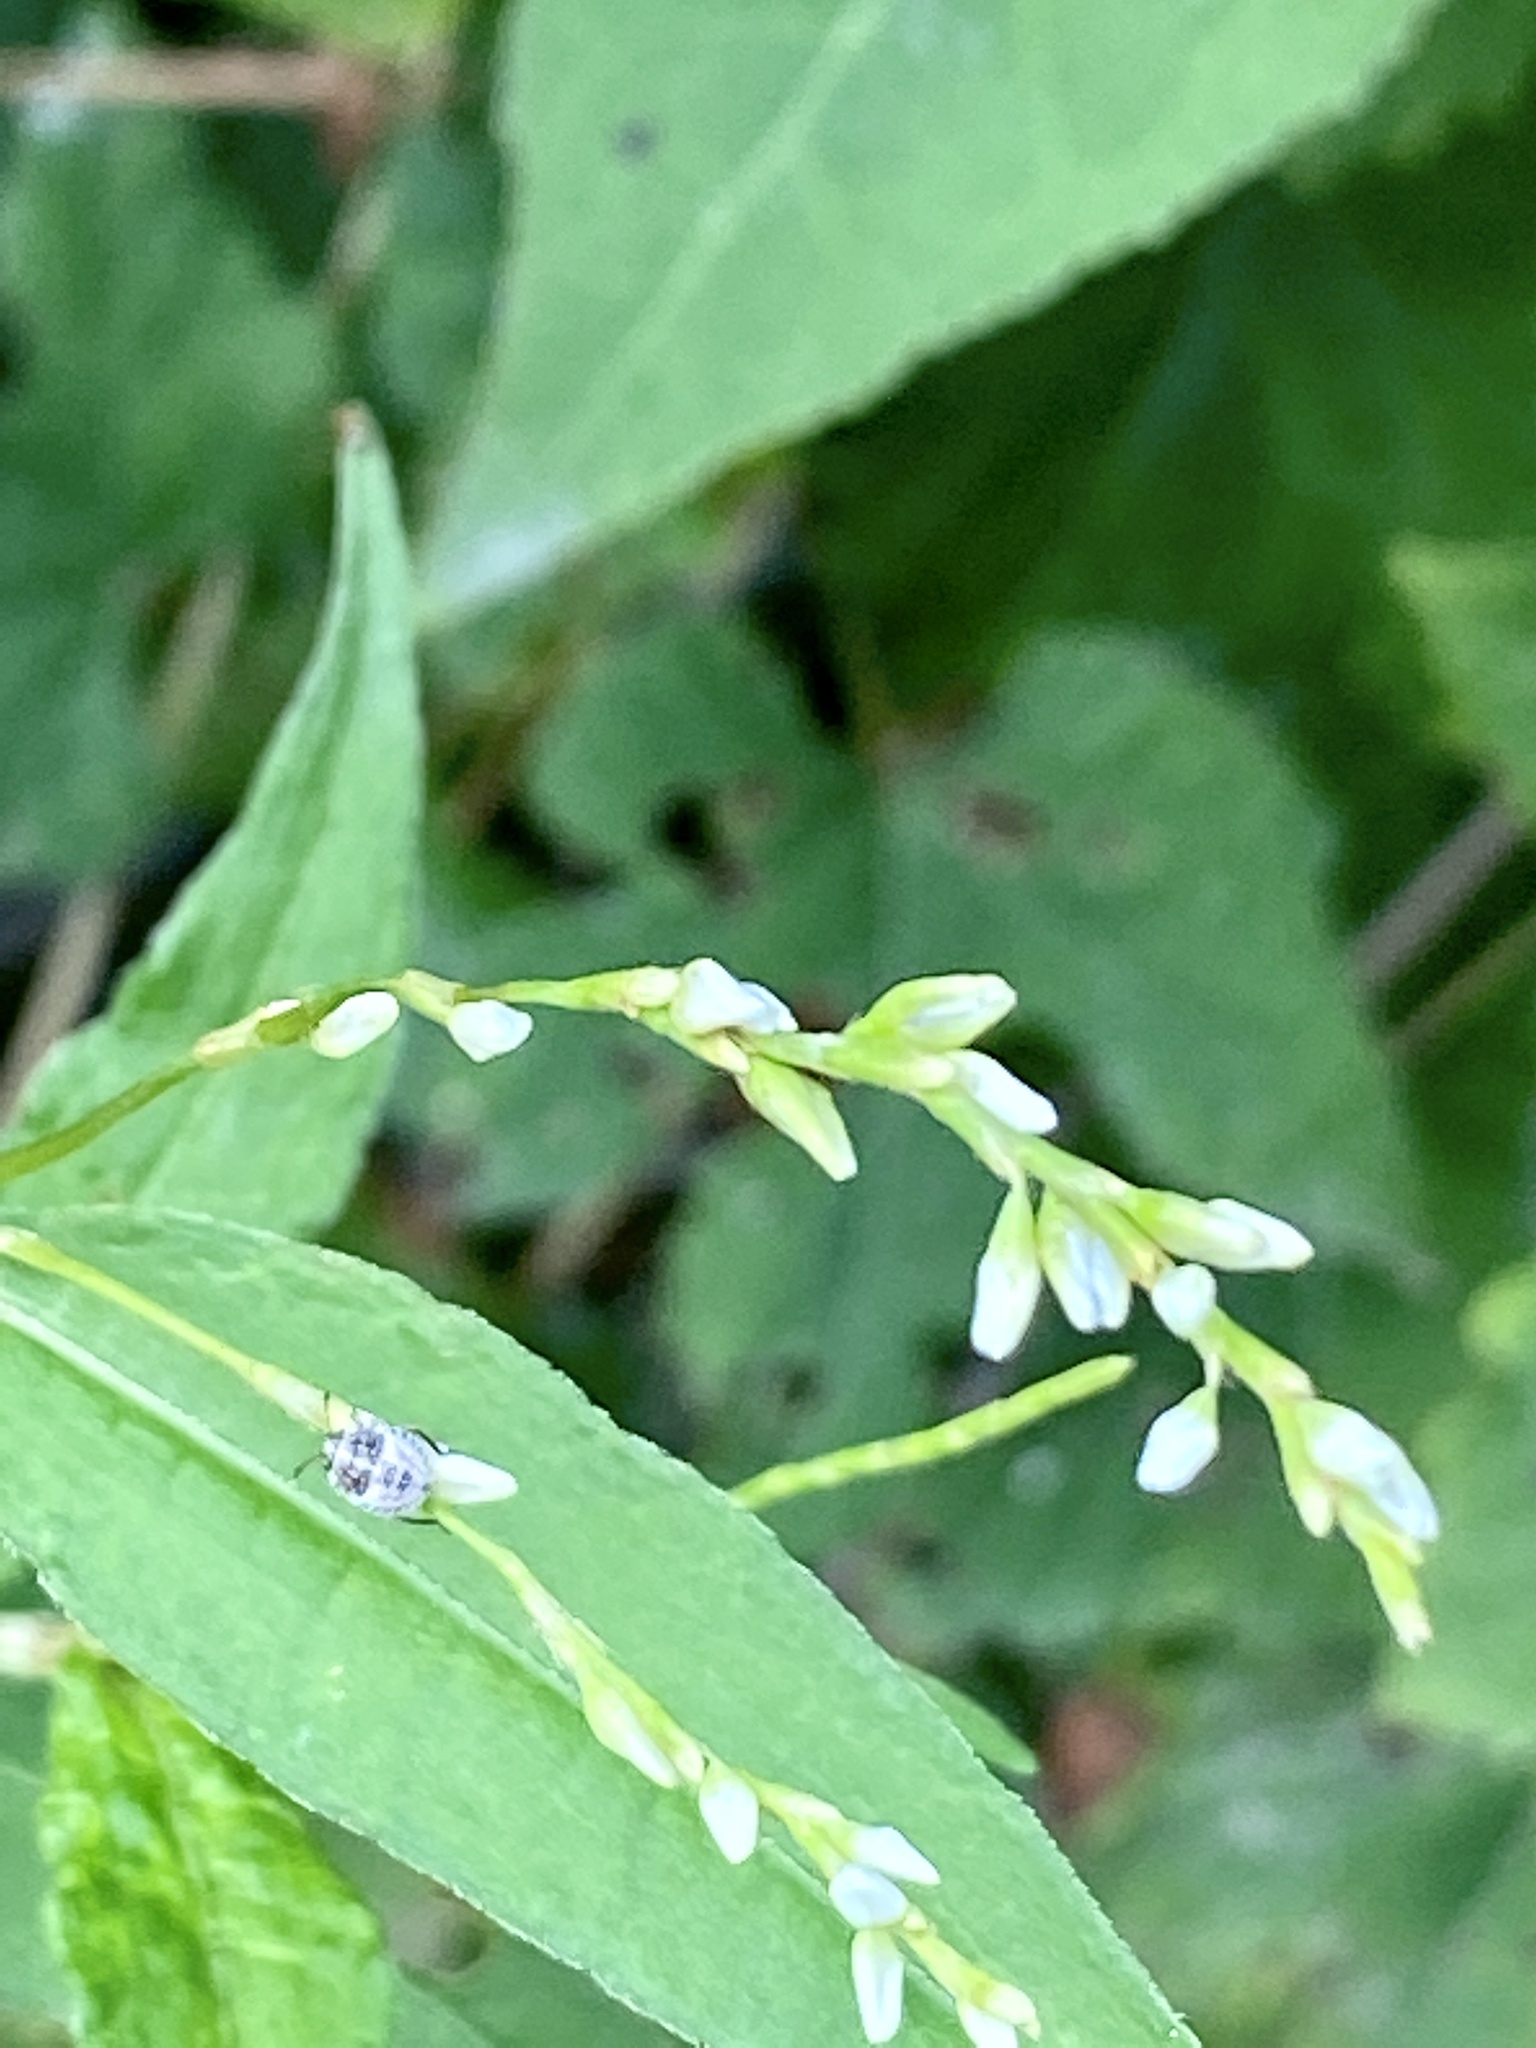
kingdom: Plantae
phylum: Tracheophyta
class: Magnoliopsida
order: Caryophyllales
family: Polygonaceae
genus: Persicaria
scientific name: Persicaria punctata
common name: Dotted smartweed
